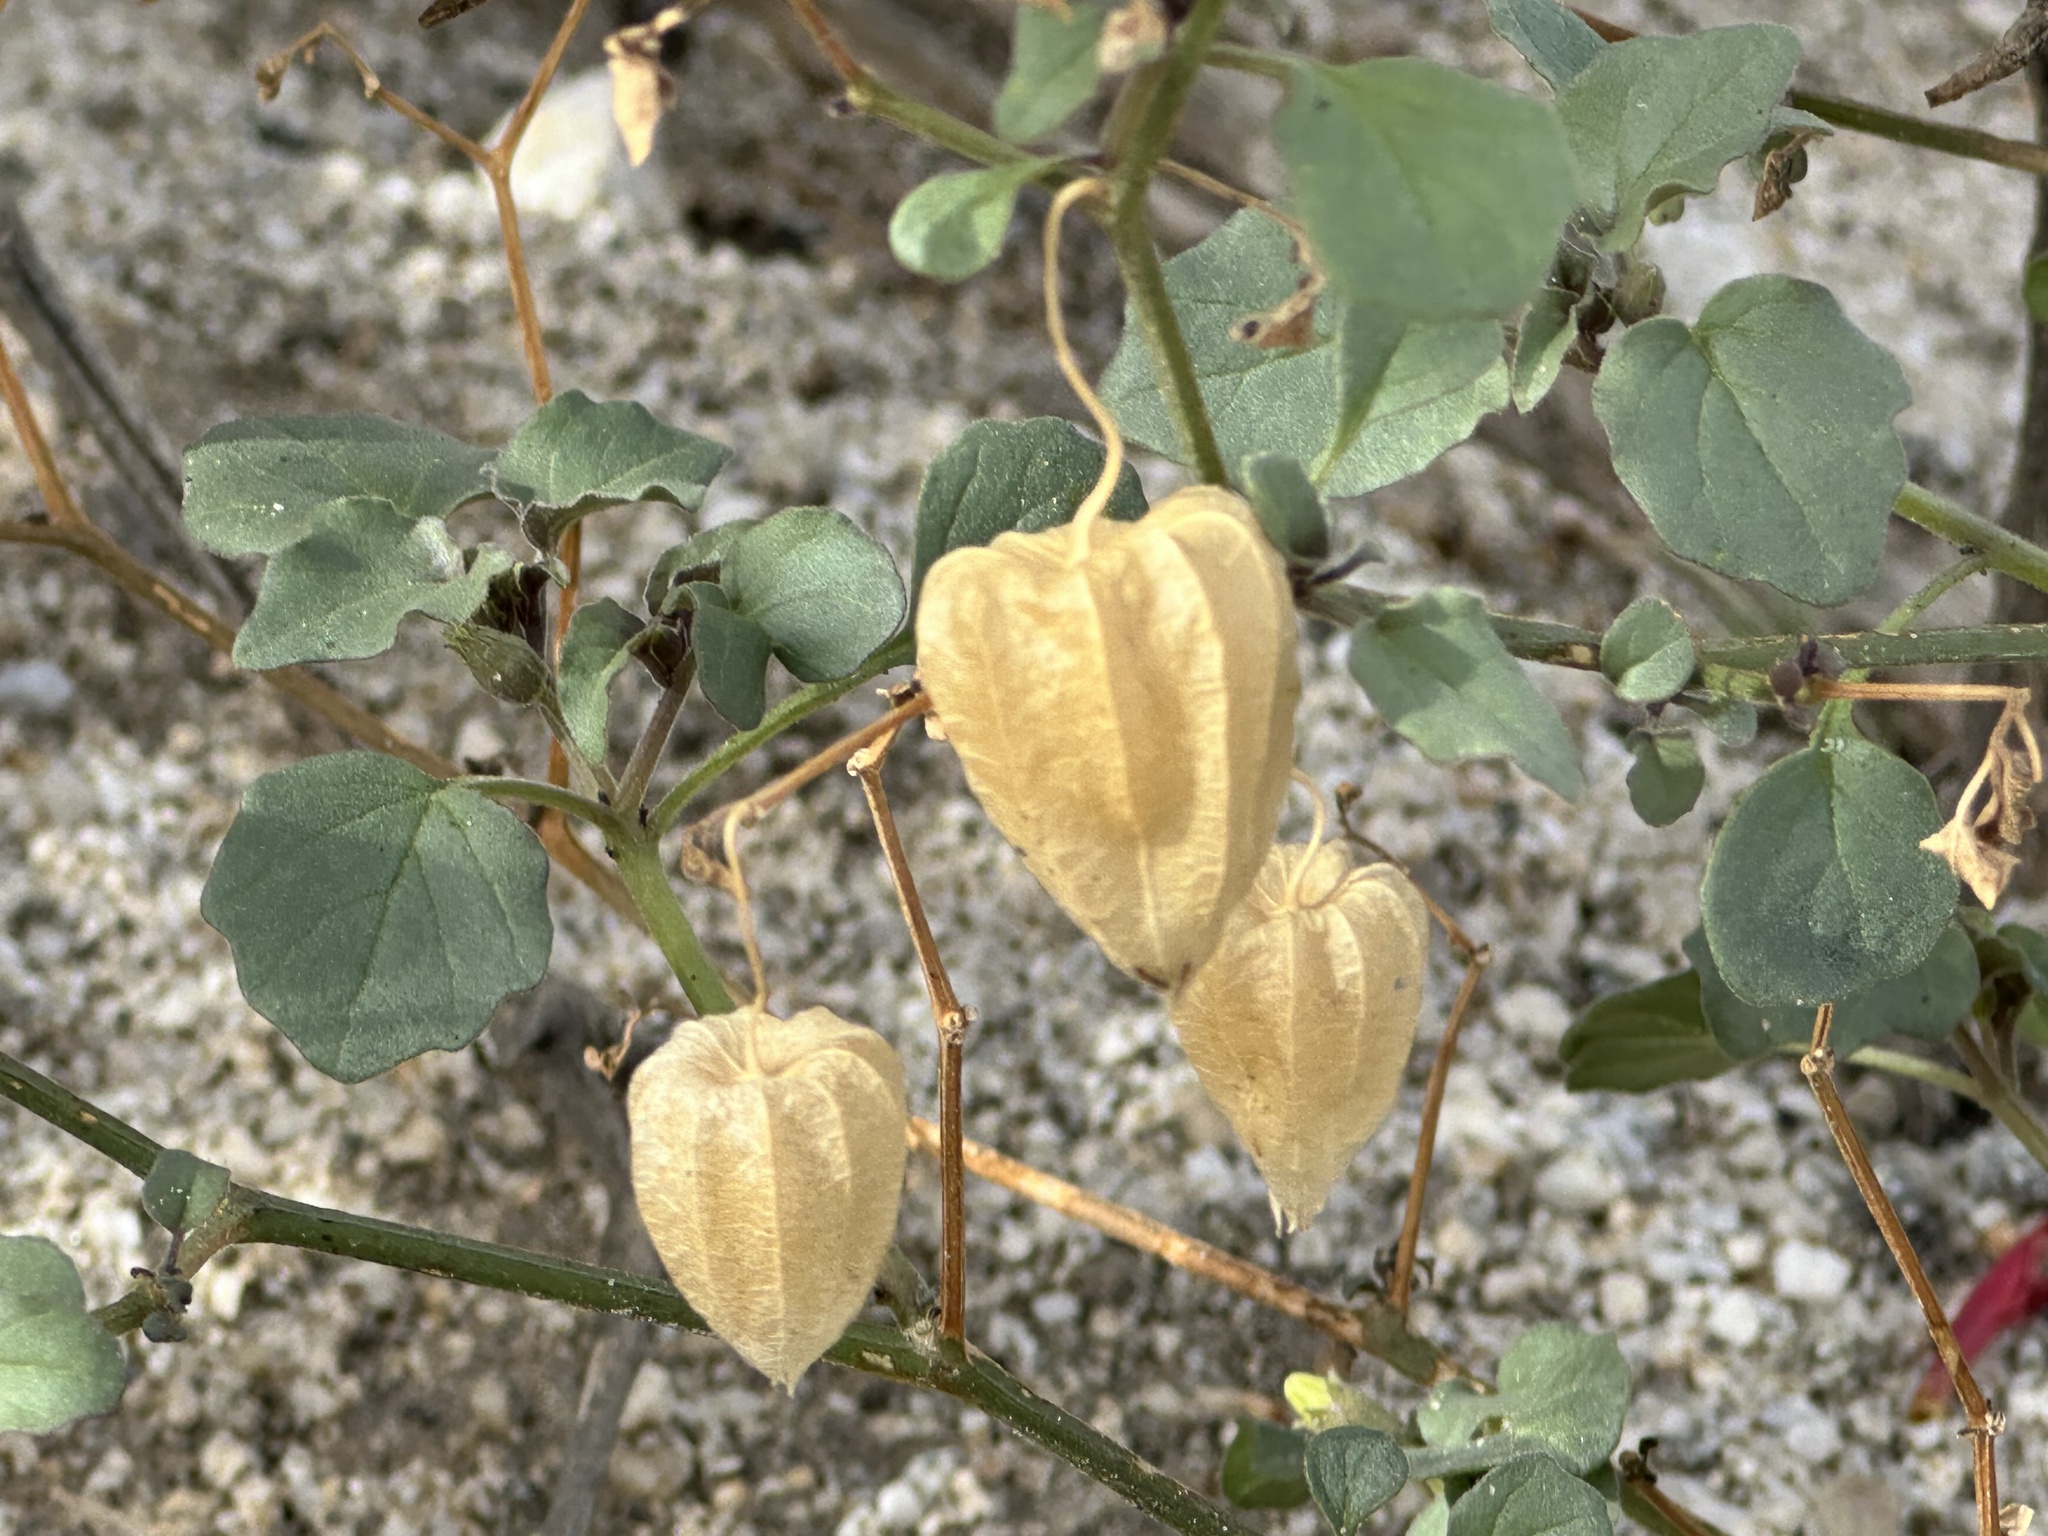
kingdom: Plantae
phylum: Tracheophyta
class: Magnoliopsida
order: Solanales
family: Solanaceae
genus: Physalis
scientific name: Physalis crassifolia
